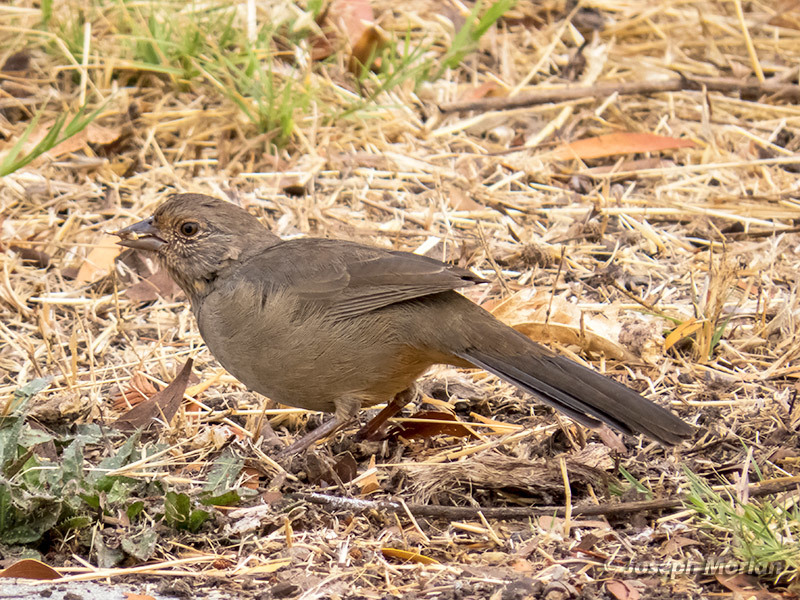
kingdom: Animalia
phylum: Chordata
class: Aves
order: Passeriformes
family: Passerellidae
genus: Melozone
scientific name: Melozone crissalis
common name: California towhee
